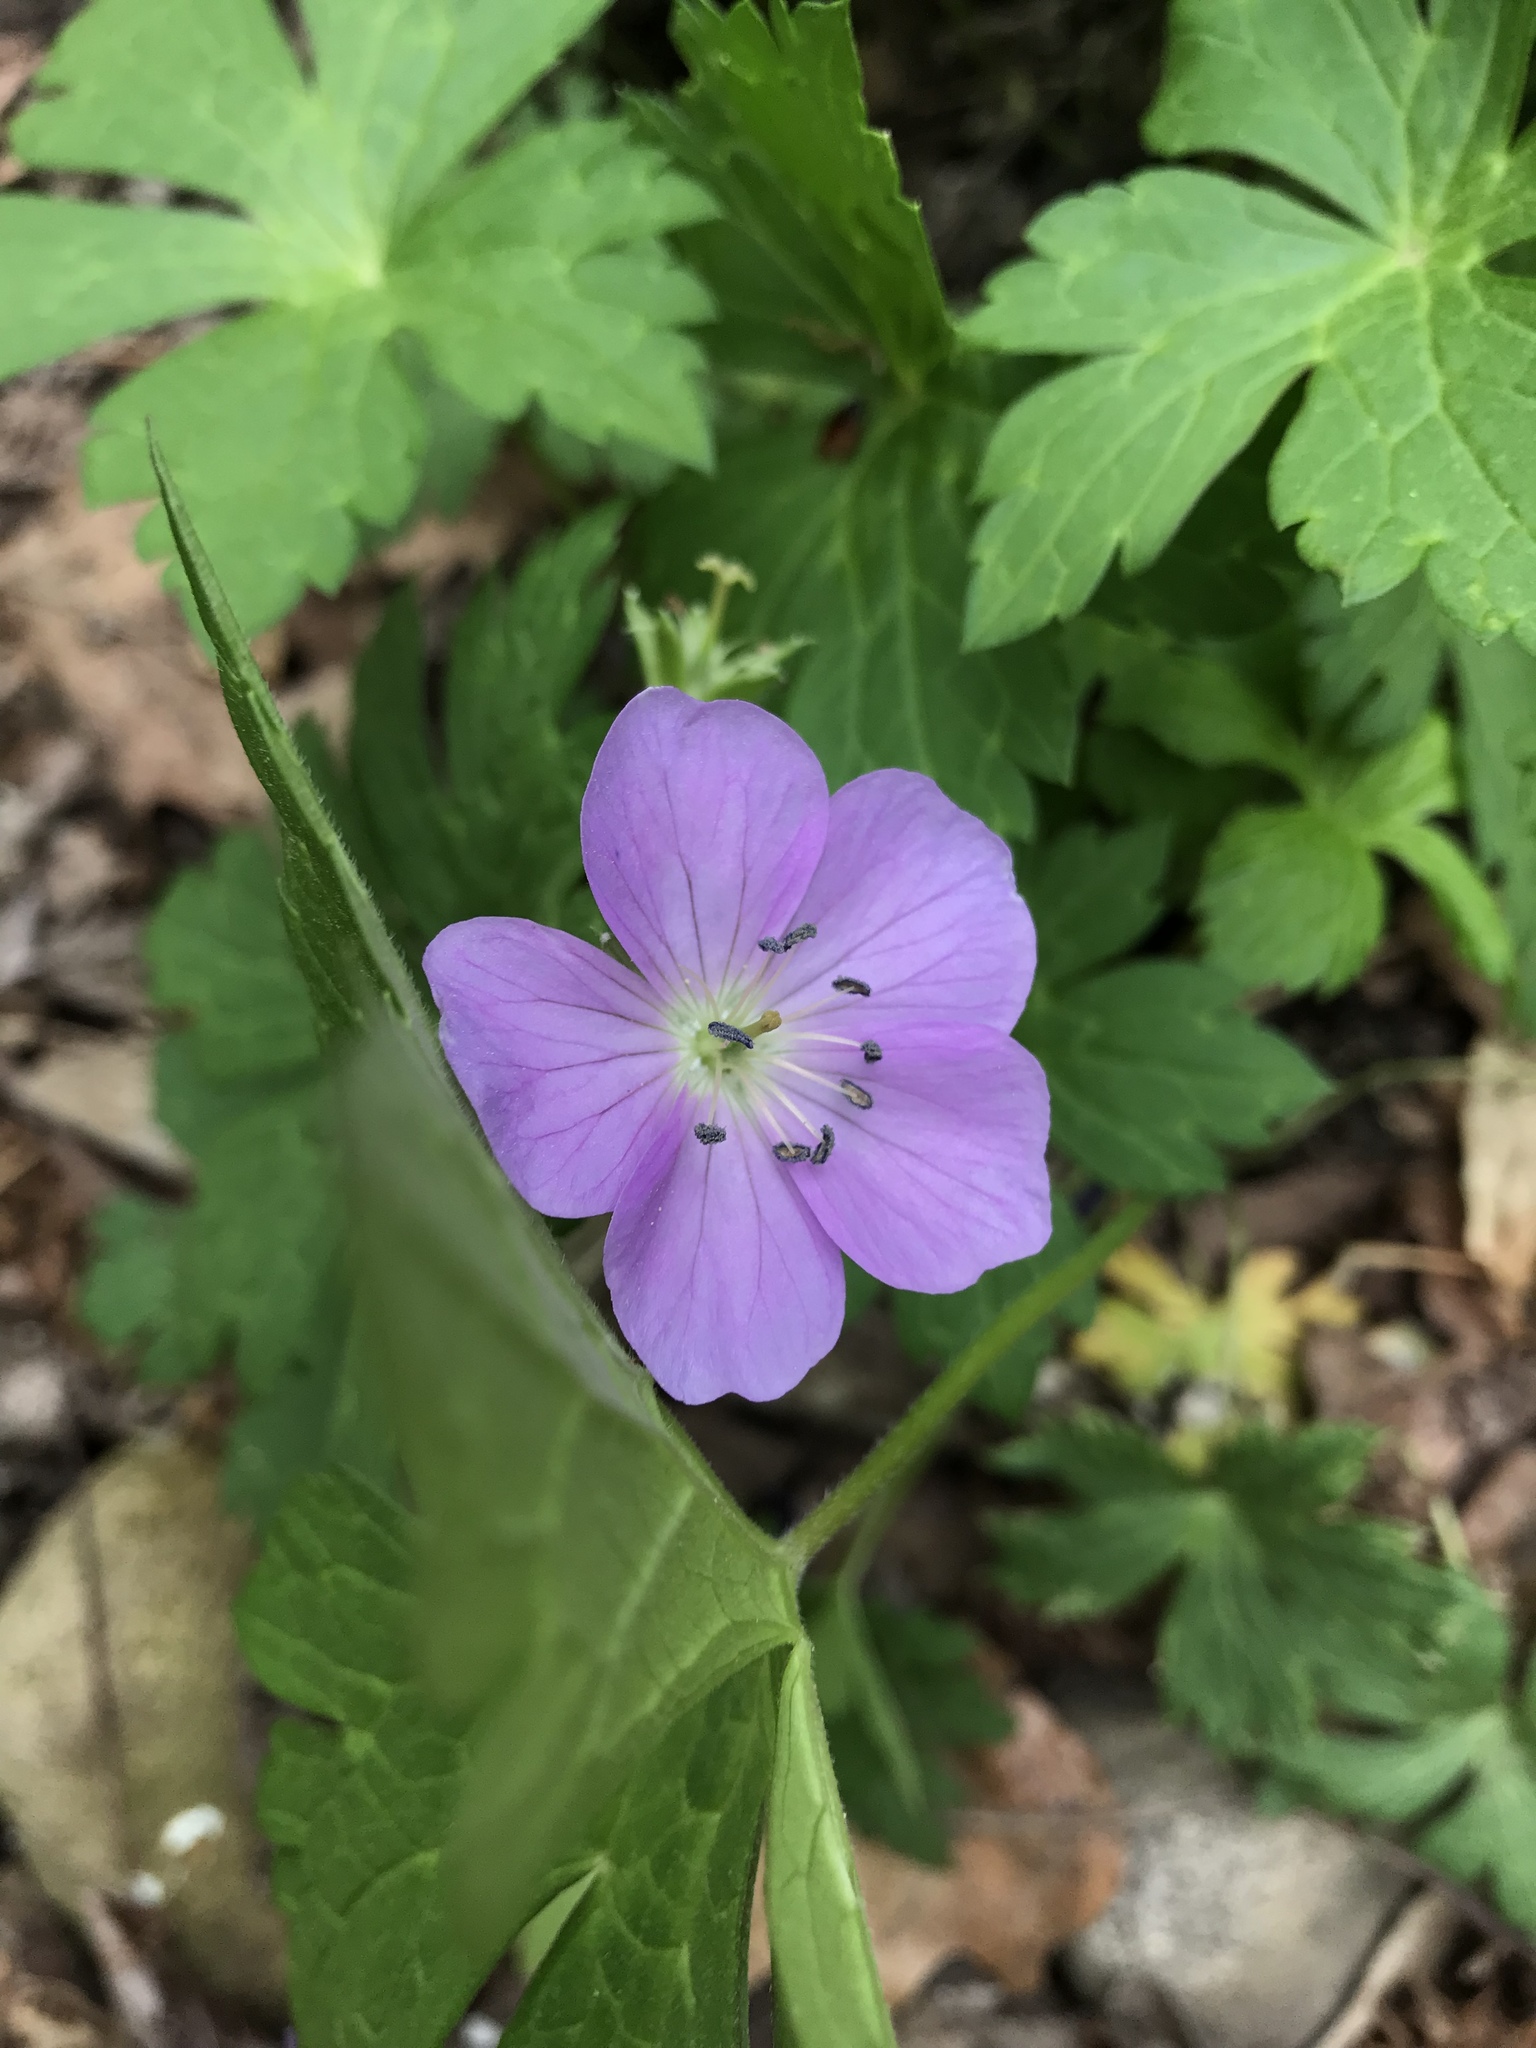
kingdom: Plantae
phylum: Tracheophyta
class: Magnoliopsida
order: Geraniales
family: Geraniaceae
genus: Geranium
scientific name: Geranium maculatum
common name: Spotted geranium
